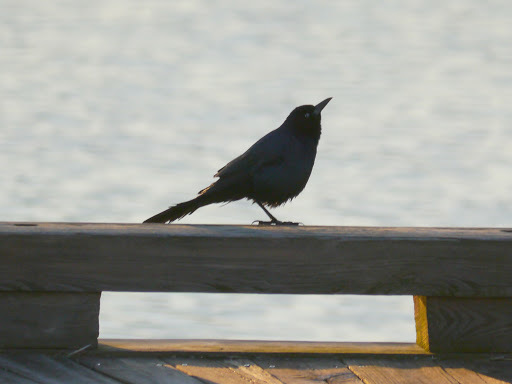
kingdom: Animalia
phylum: Chordata
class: Aves
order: Passeriformes
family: Icteridae
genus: Quiscalus
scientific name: Quiscalus major
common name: Boat-tailed grackle
